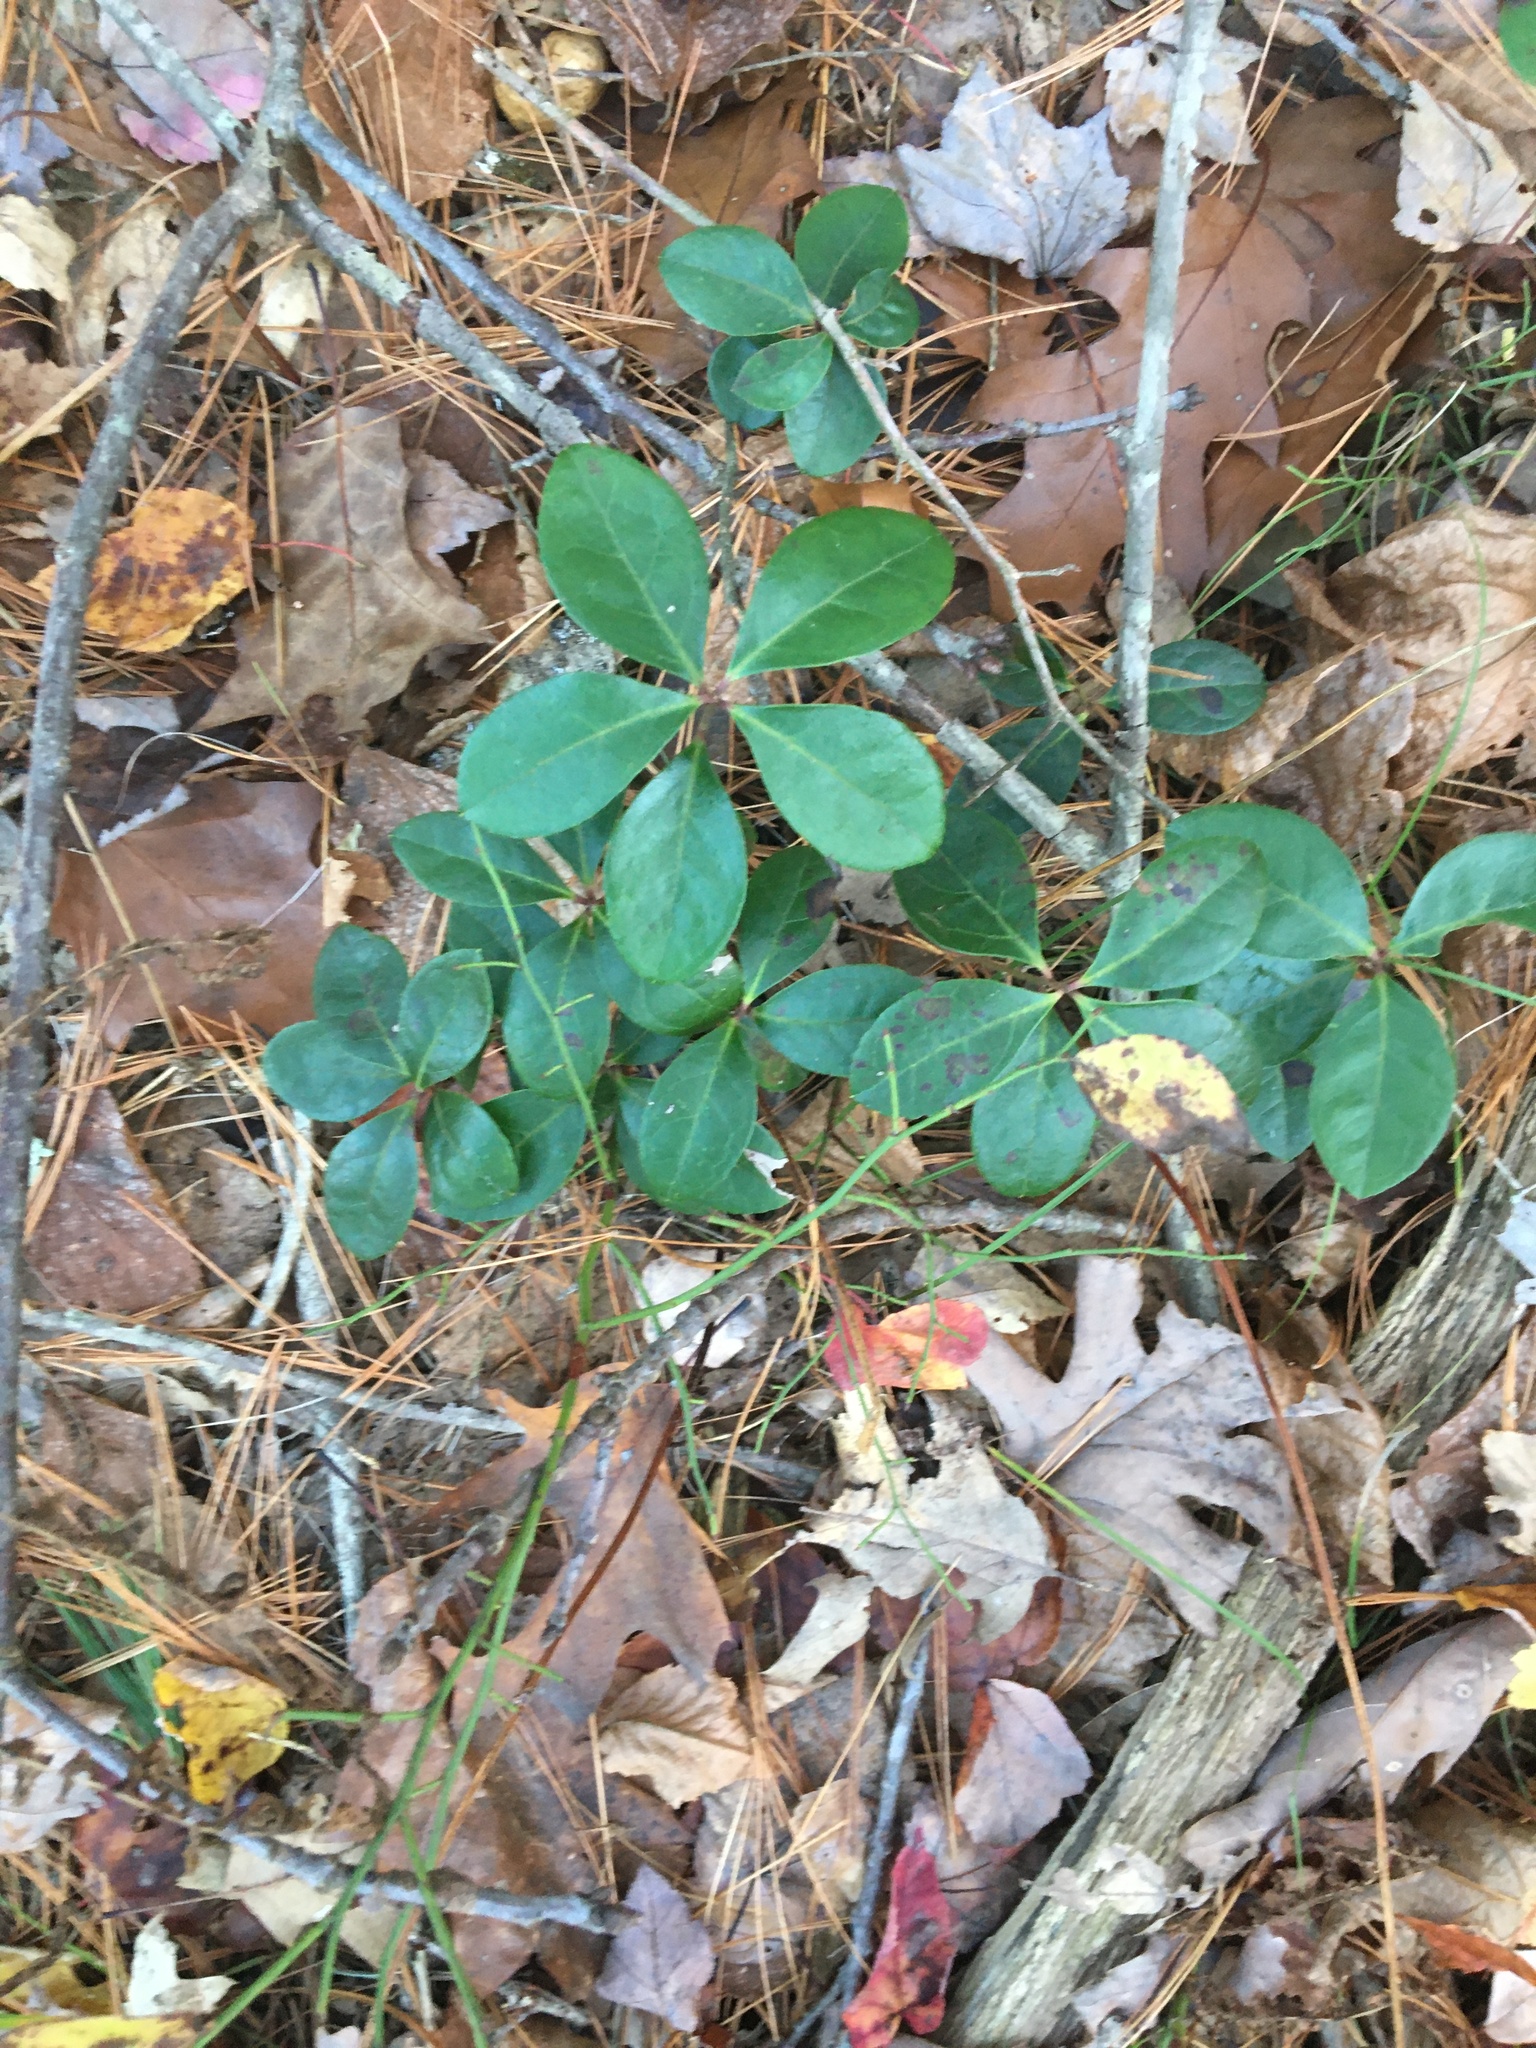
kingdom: Plantae
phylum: Tracheophyta
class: Magnoliopsida
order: Ericales
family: Ericaceae
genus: Gaultheria
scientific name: Gaultheria procumbens
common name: Checkerberry
